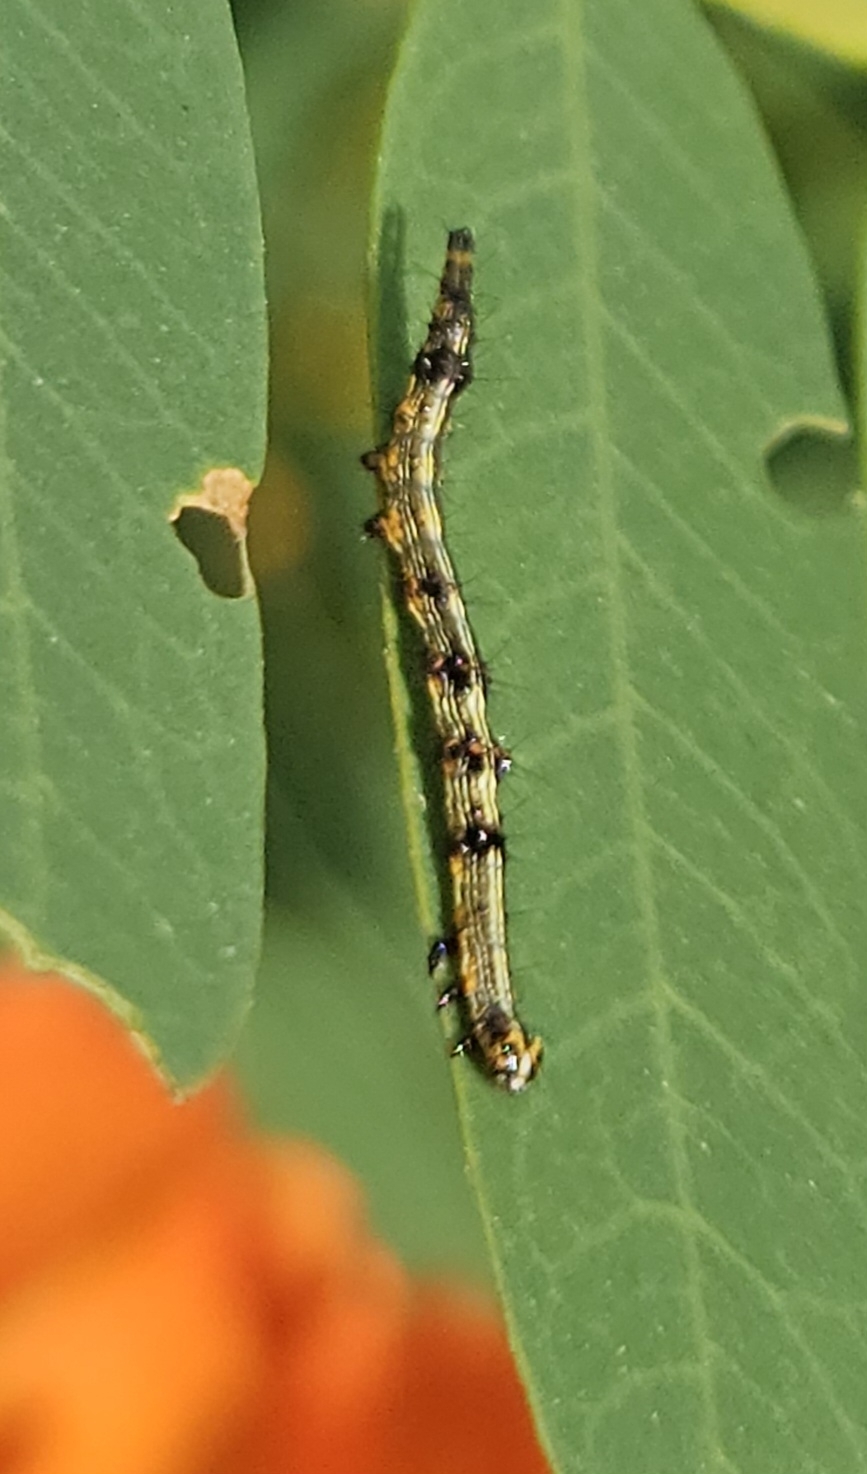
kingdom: Animalia
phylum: Arthropoda
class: Insecta
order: Lepidoptera
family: Erebidae
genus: Selenisa
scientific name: Selenisa sueroides
